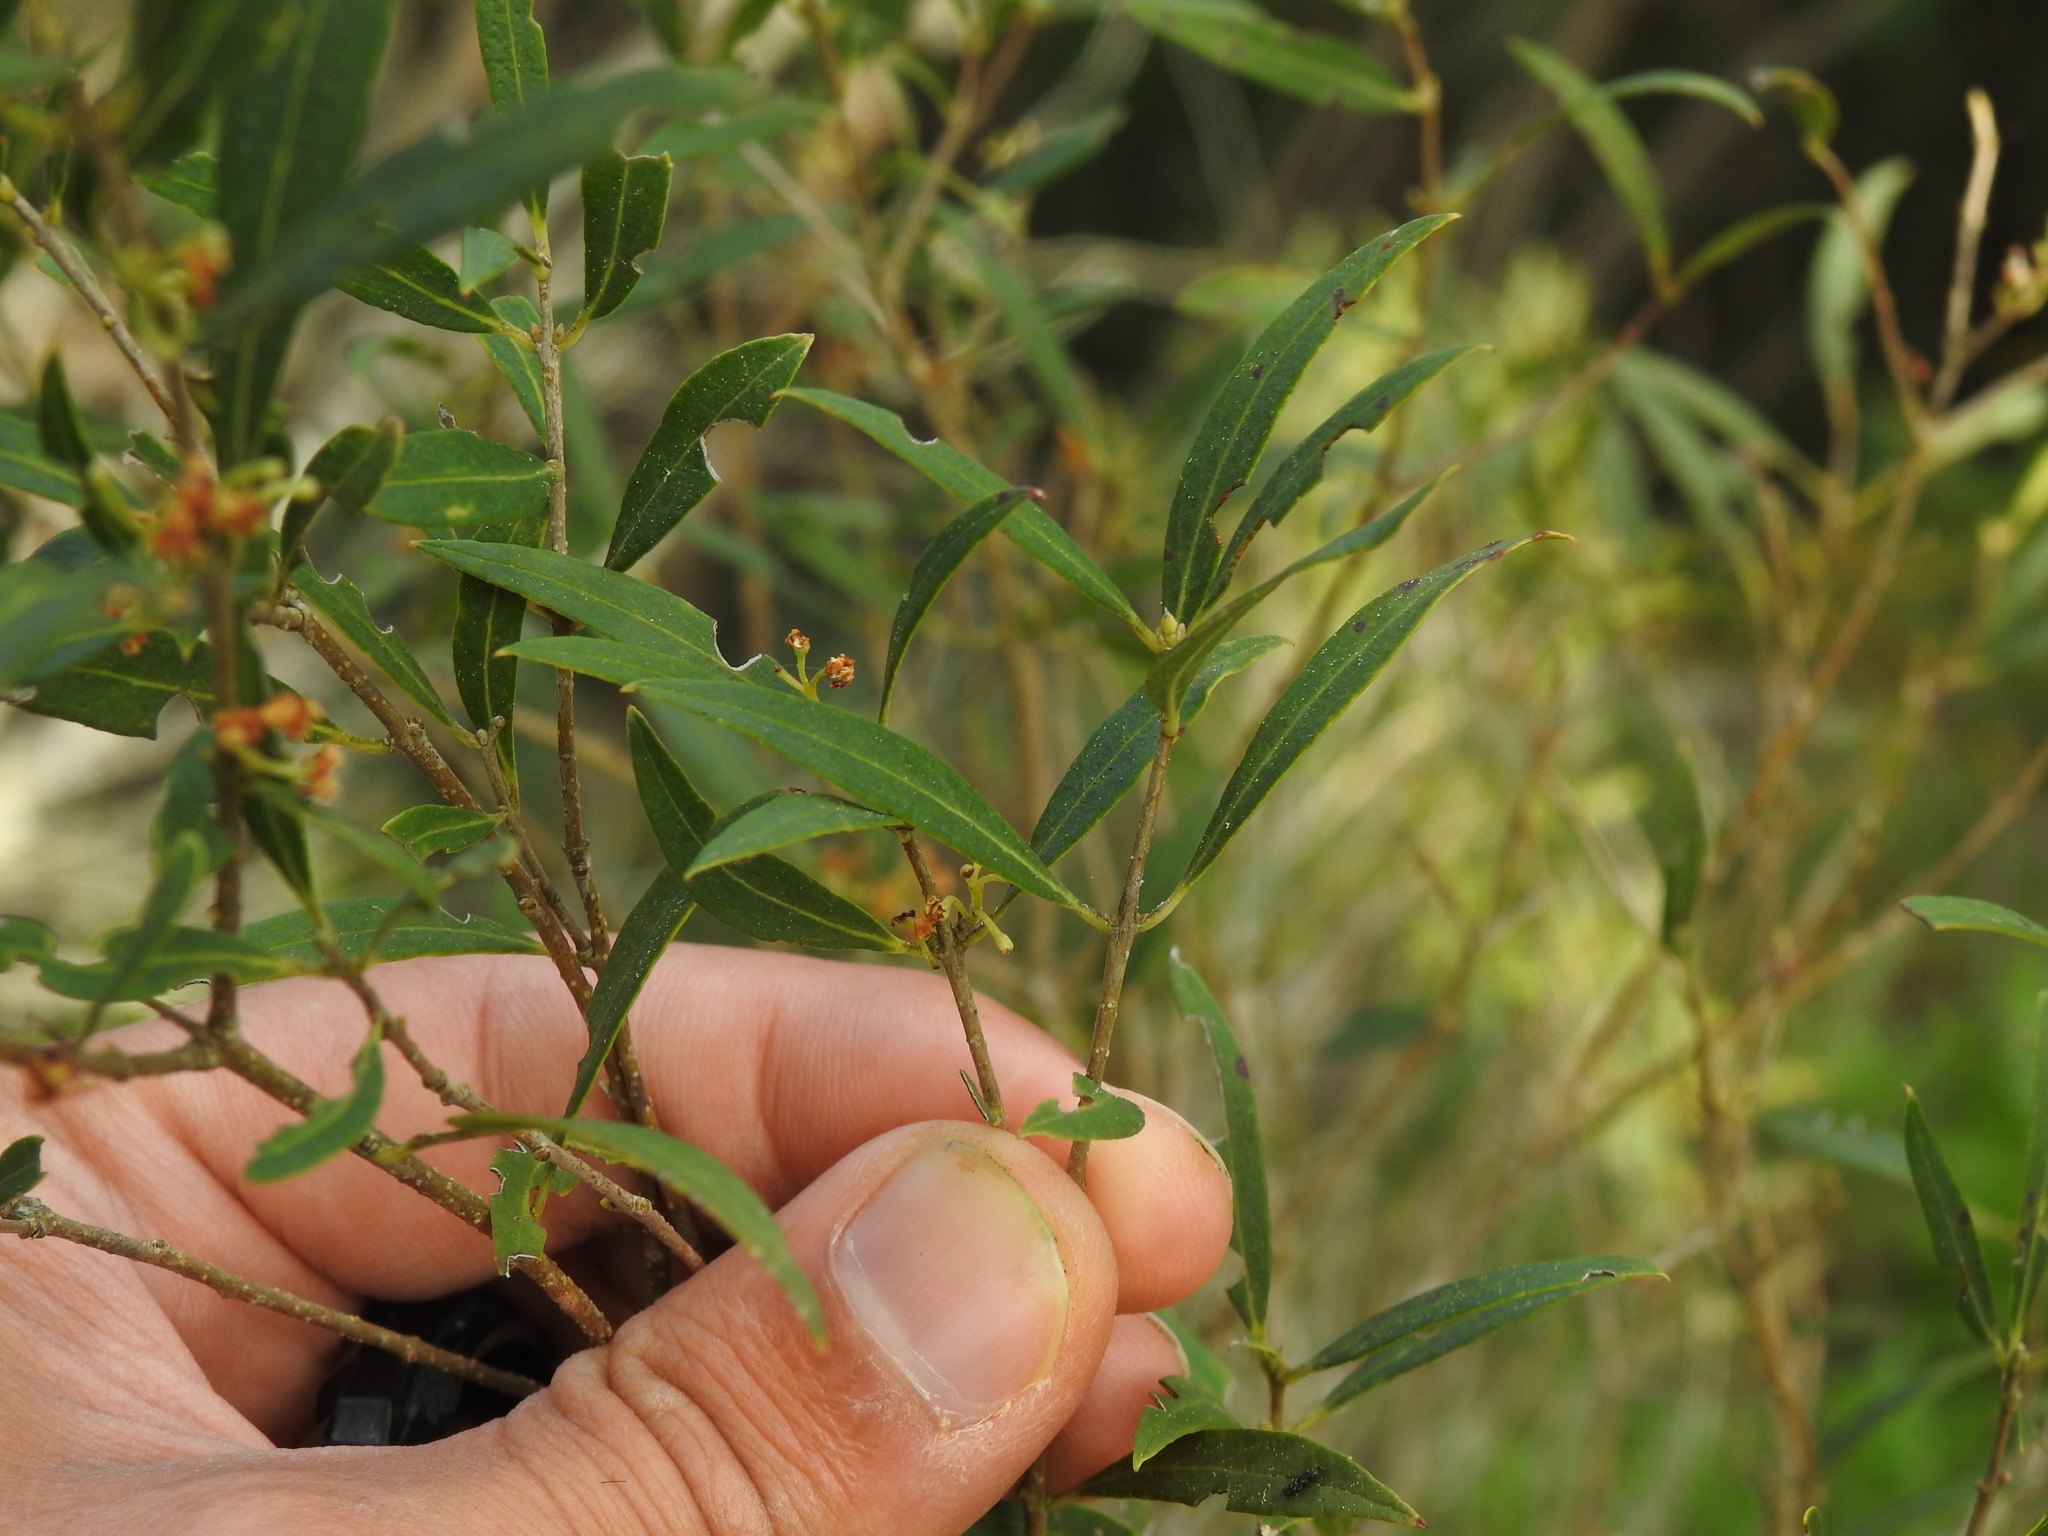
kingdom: Plantae
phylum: Tracheophyta
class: Magnoliopsida
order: Lamiales
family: Oleaceae
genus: Phillyrea
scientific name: Phillyrea angustifolia
